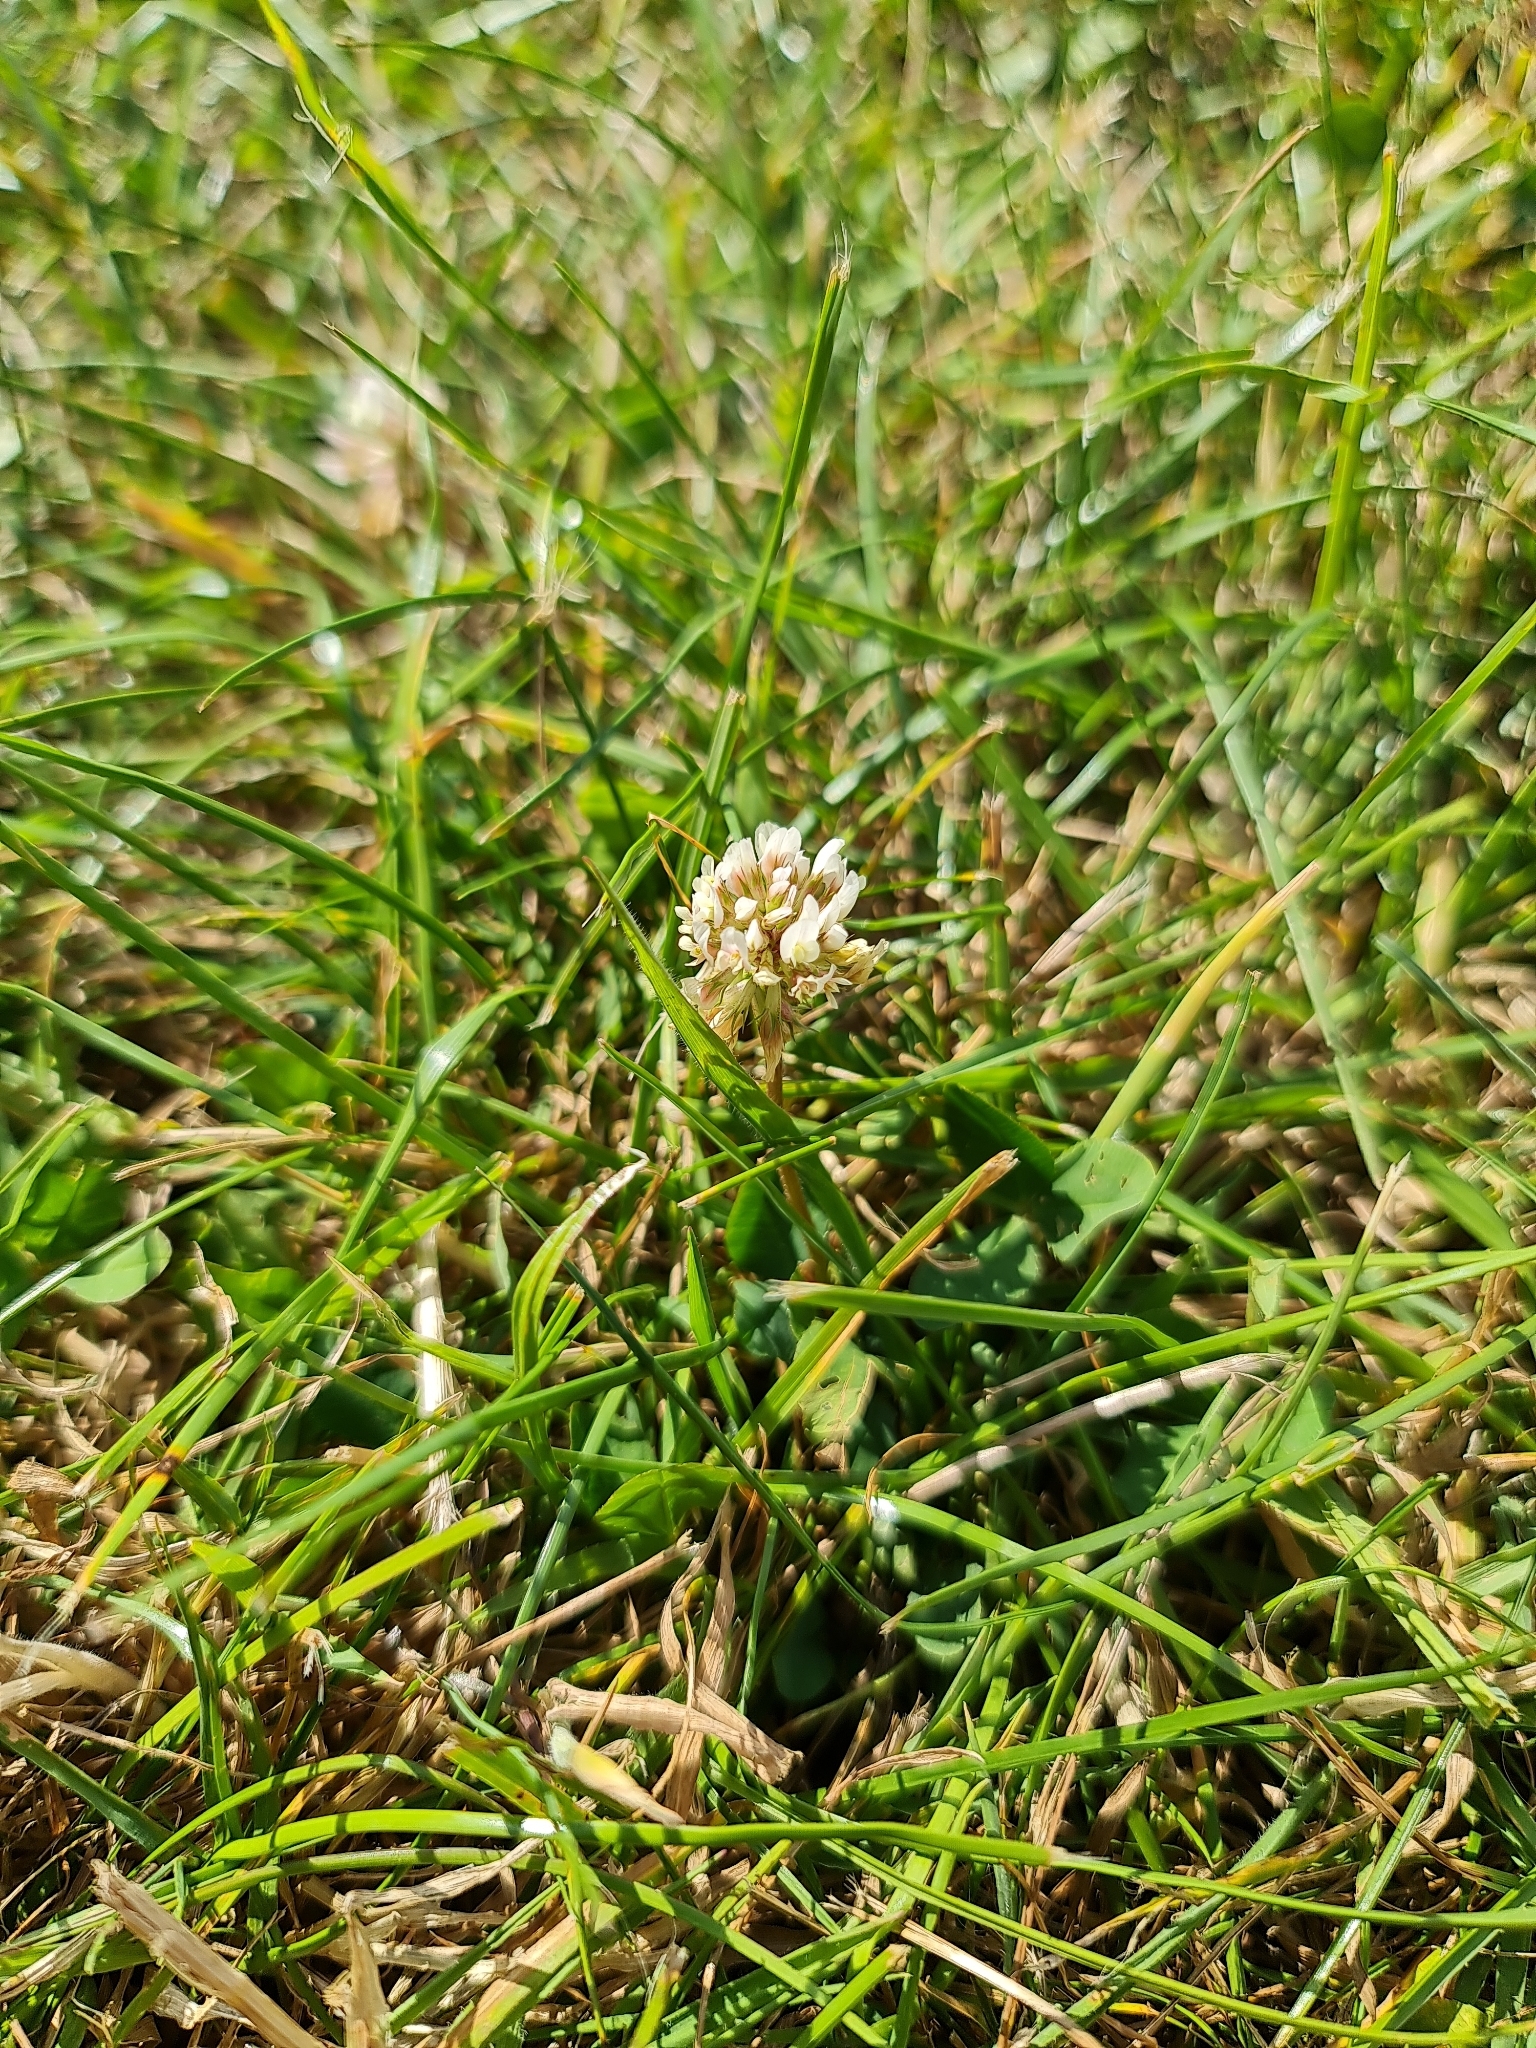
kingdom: Plantae
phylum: Tracheophyta
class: Magnoliopsida
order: Fabales
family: Fabaceae
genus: Trifolium
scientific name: Trifolium repens
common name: White clover
